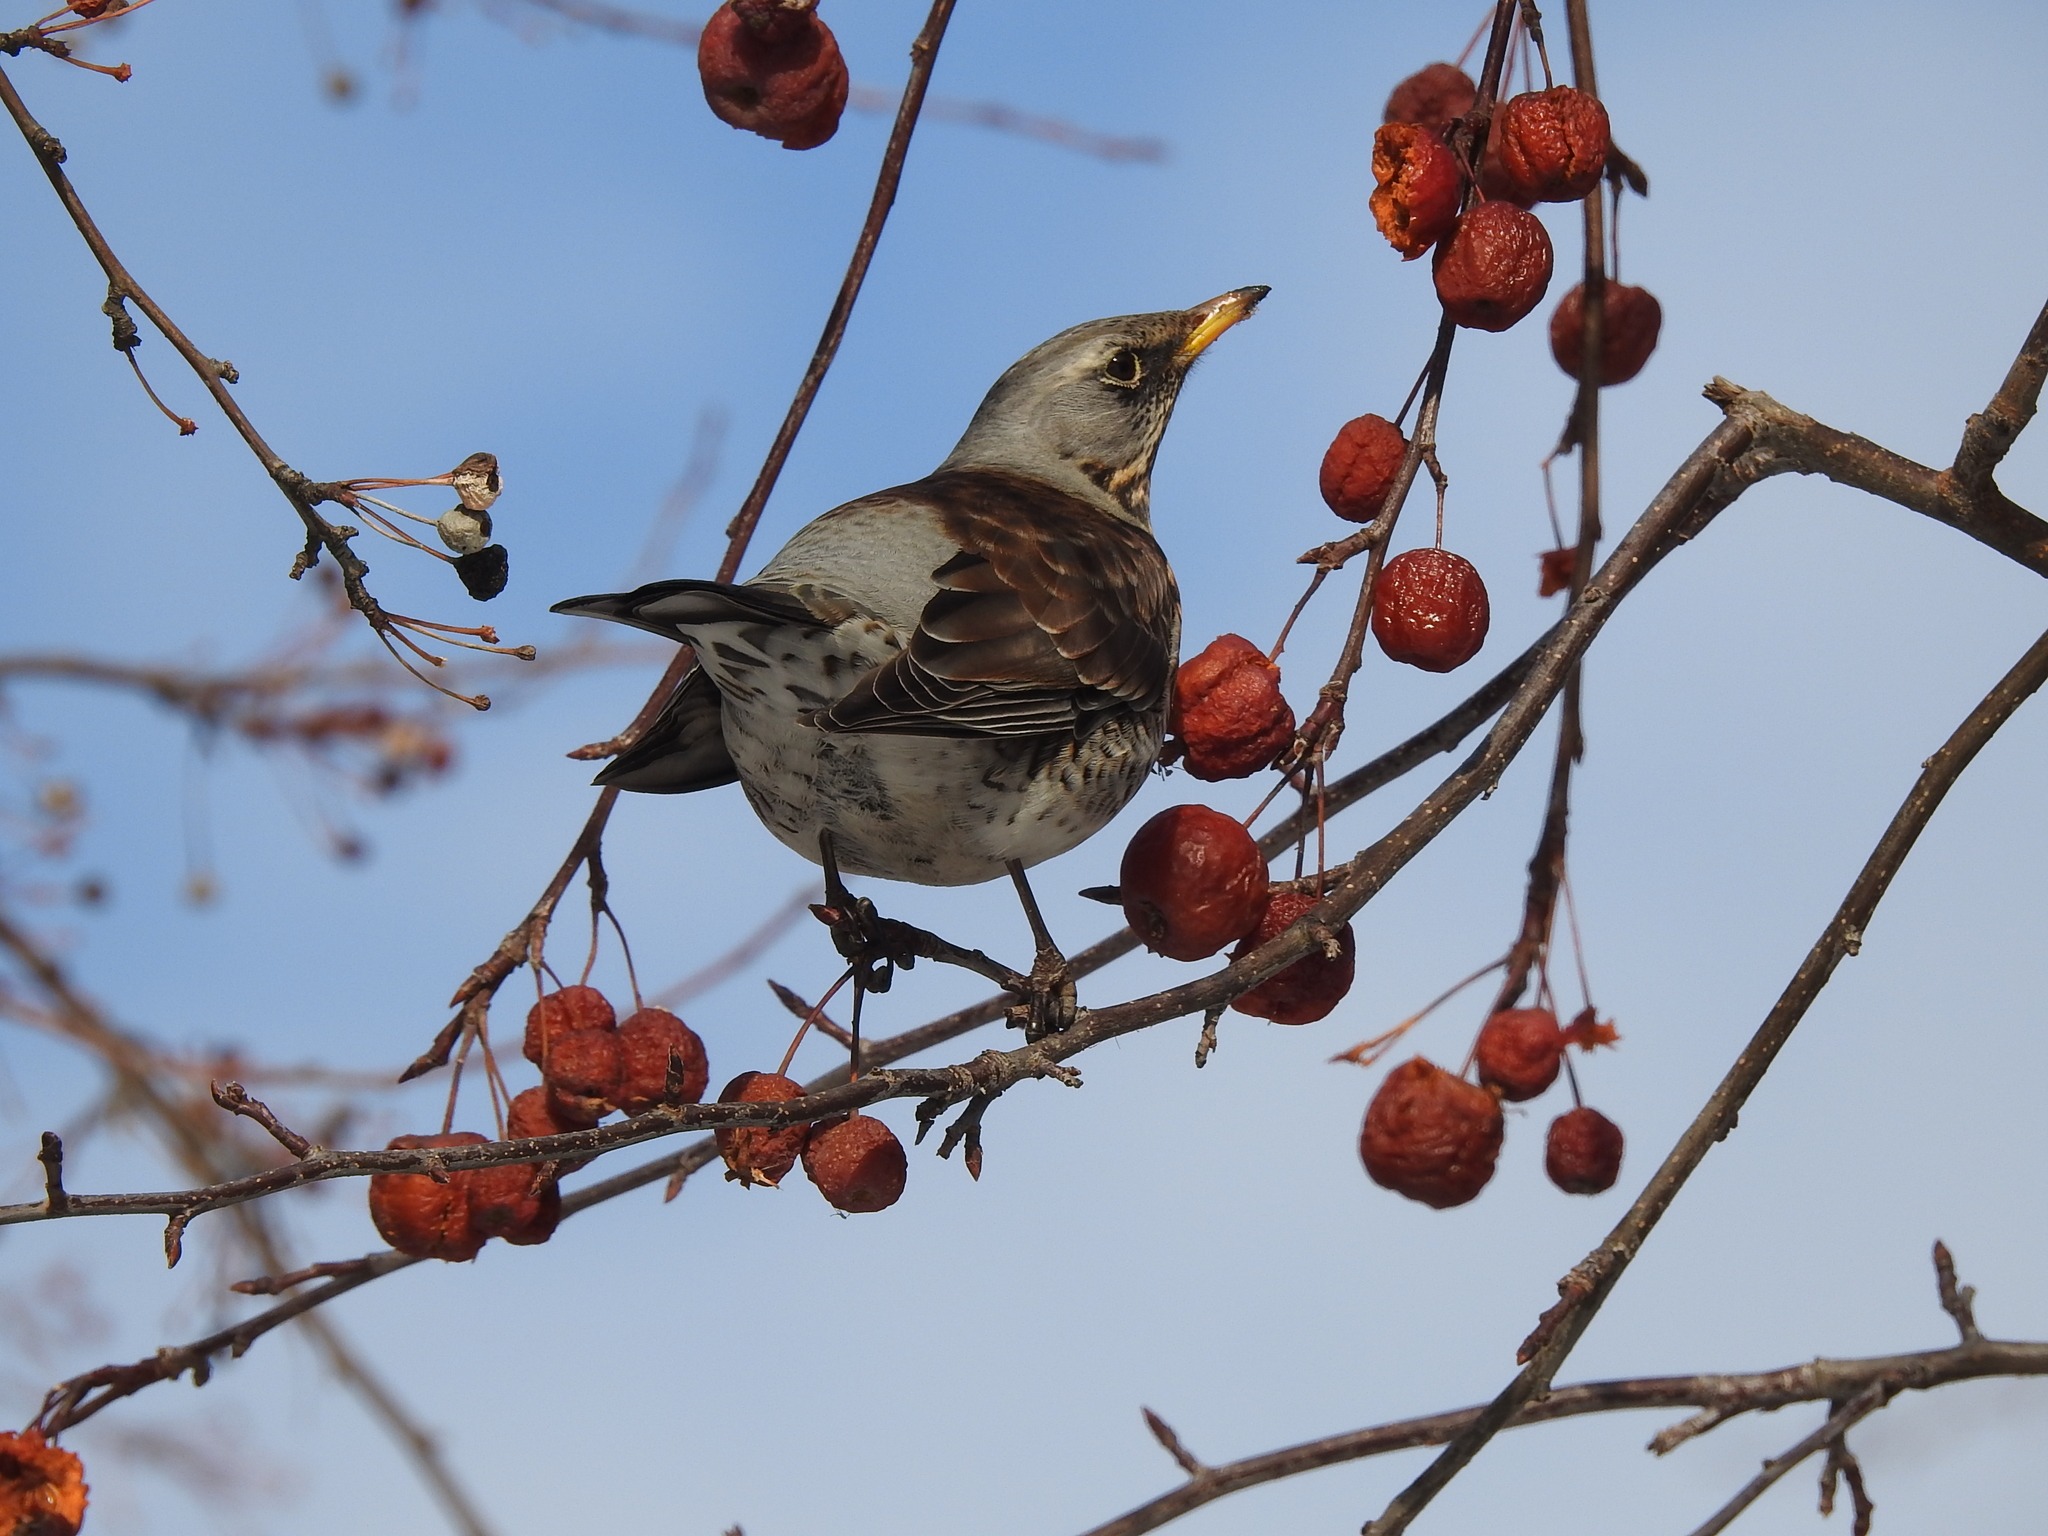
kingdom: Animalia
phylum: Chordata
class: Aves
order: Passeriformes
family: Turdidae
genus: Turdus
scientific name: Turdus pilaris
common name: Fieldfare
